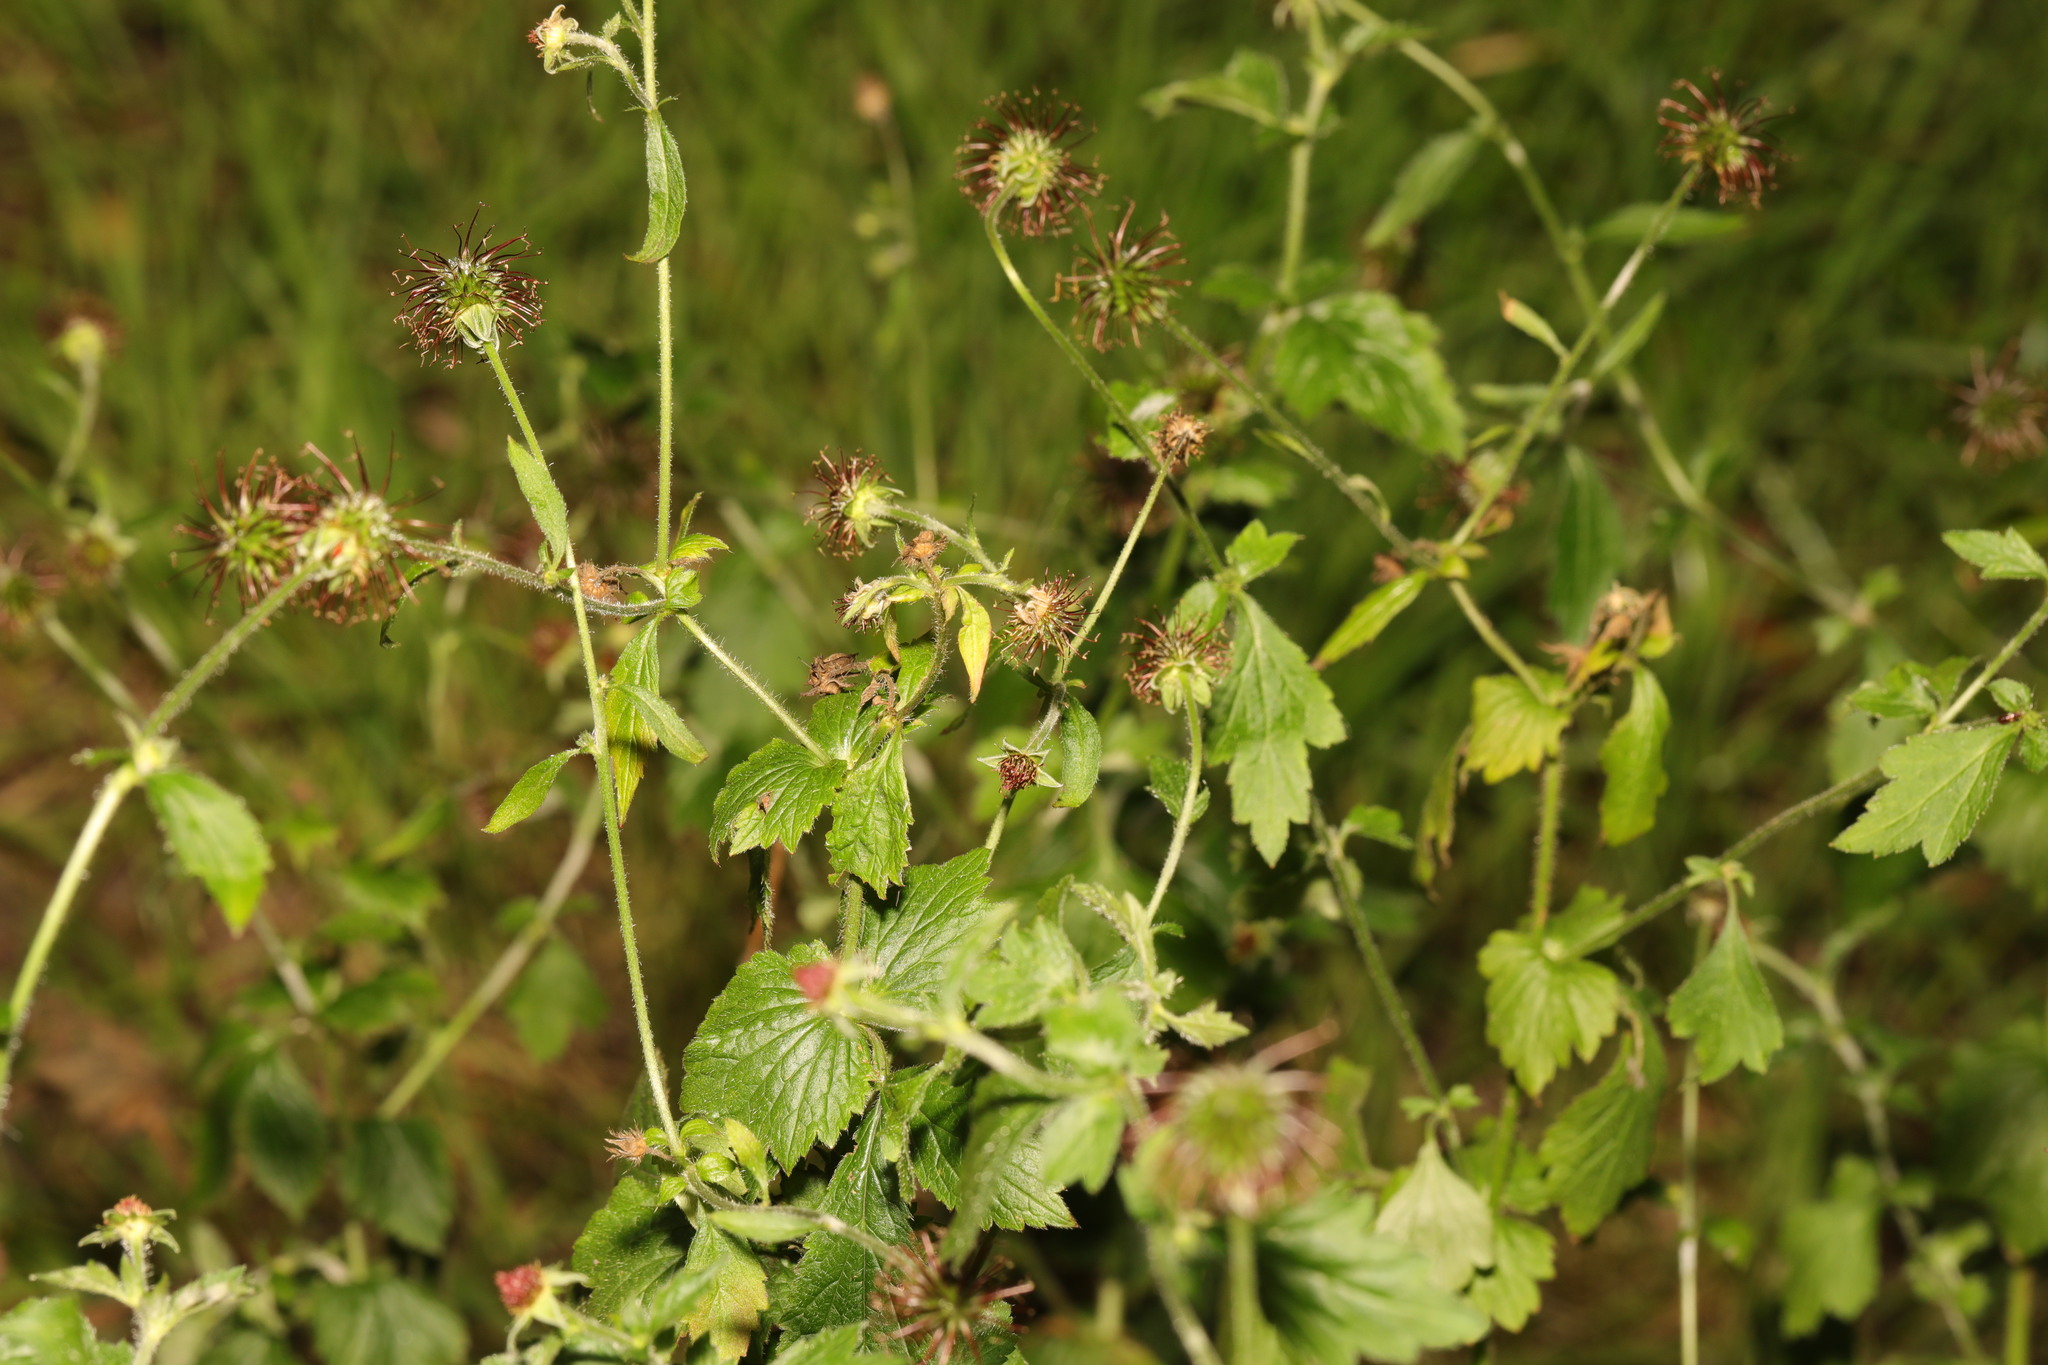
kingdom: Plantae
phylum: Tracheophyta
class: Magnoliopsida
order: Rosales
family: Rosaceae
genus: Geum
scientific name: Geum urbanum
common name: Wood avens
